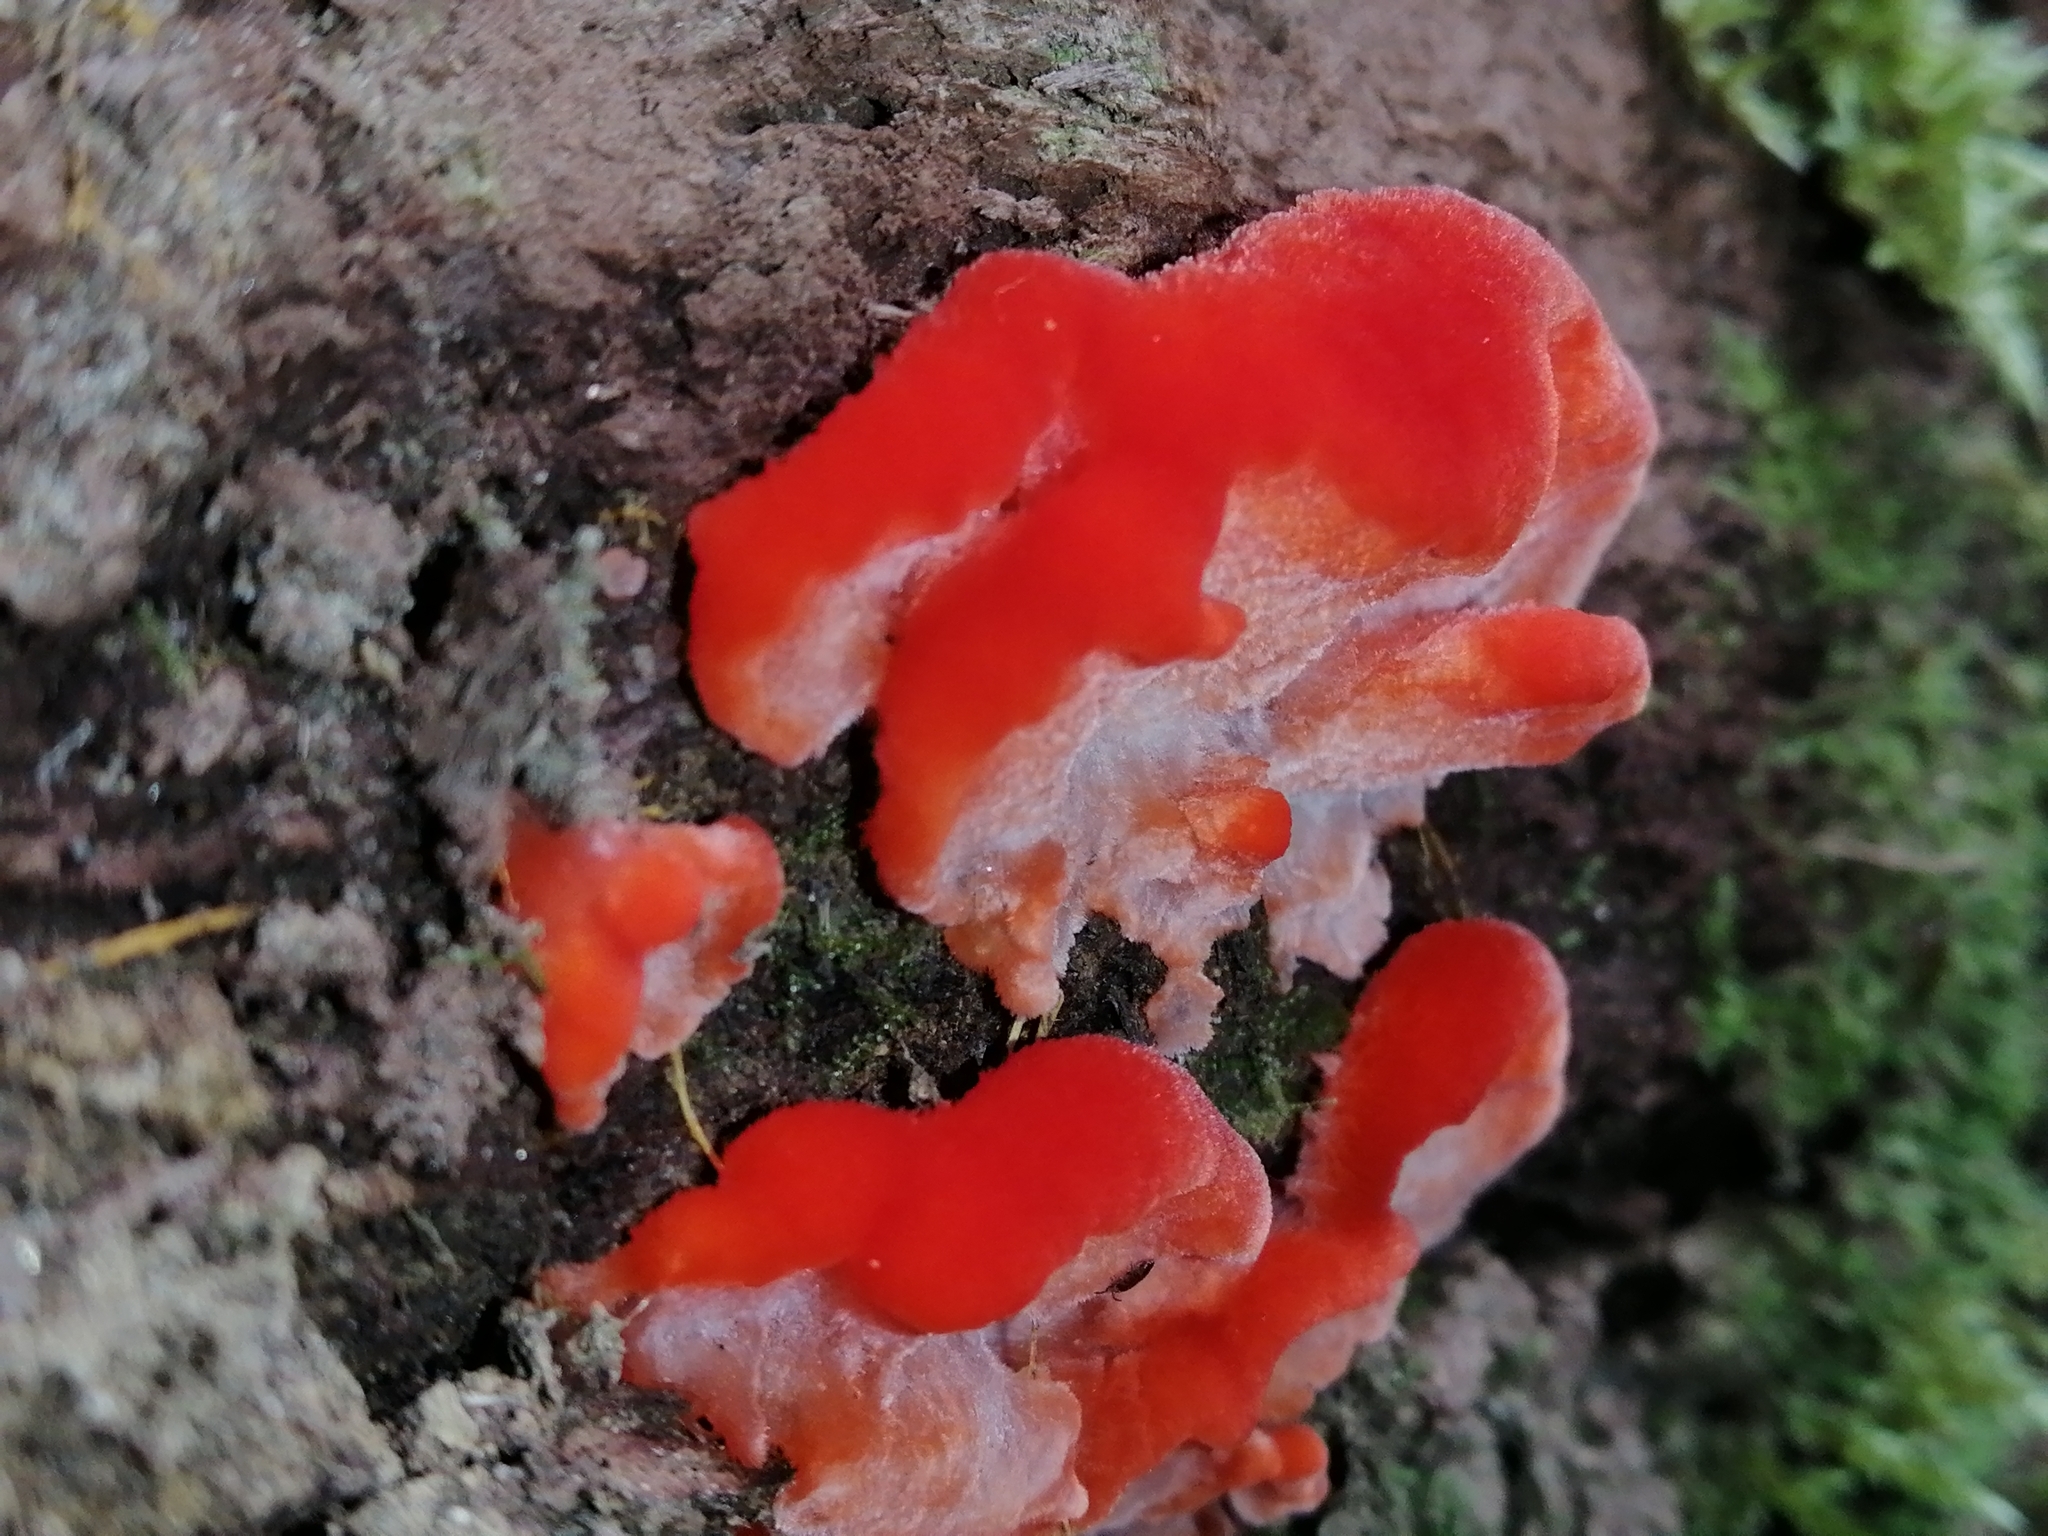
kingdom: Fungi
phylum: Basidiomycota
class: Agaricomycetes
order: Polyporales
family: Incrustoporiaceae
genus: Tyromyces
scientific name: Tyromyces pulcherrimus
